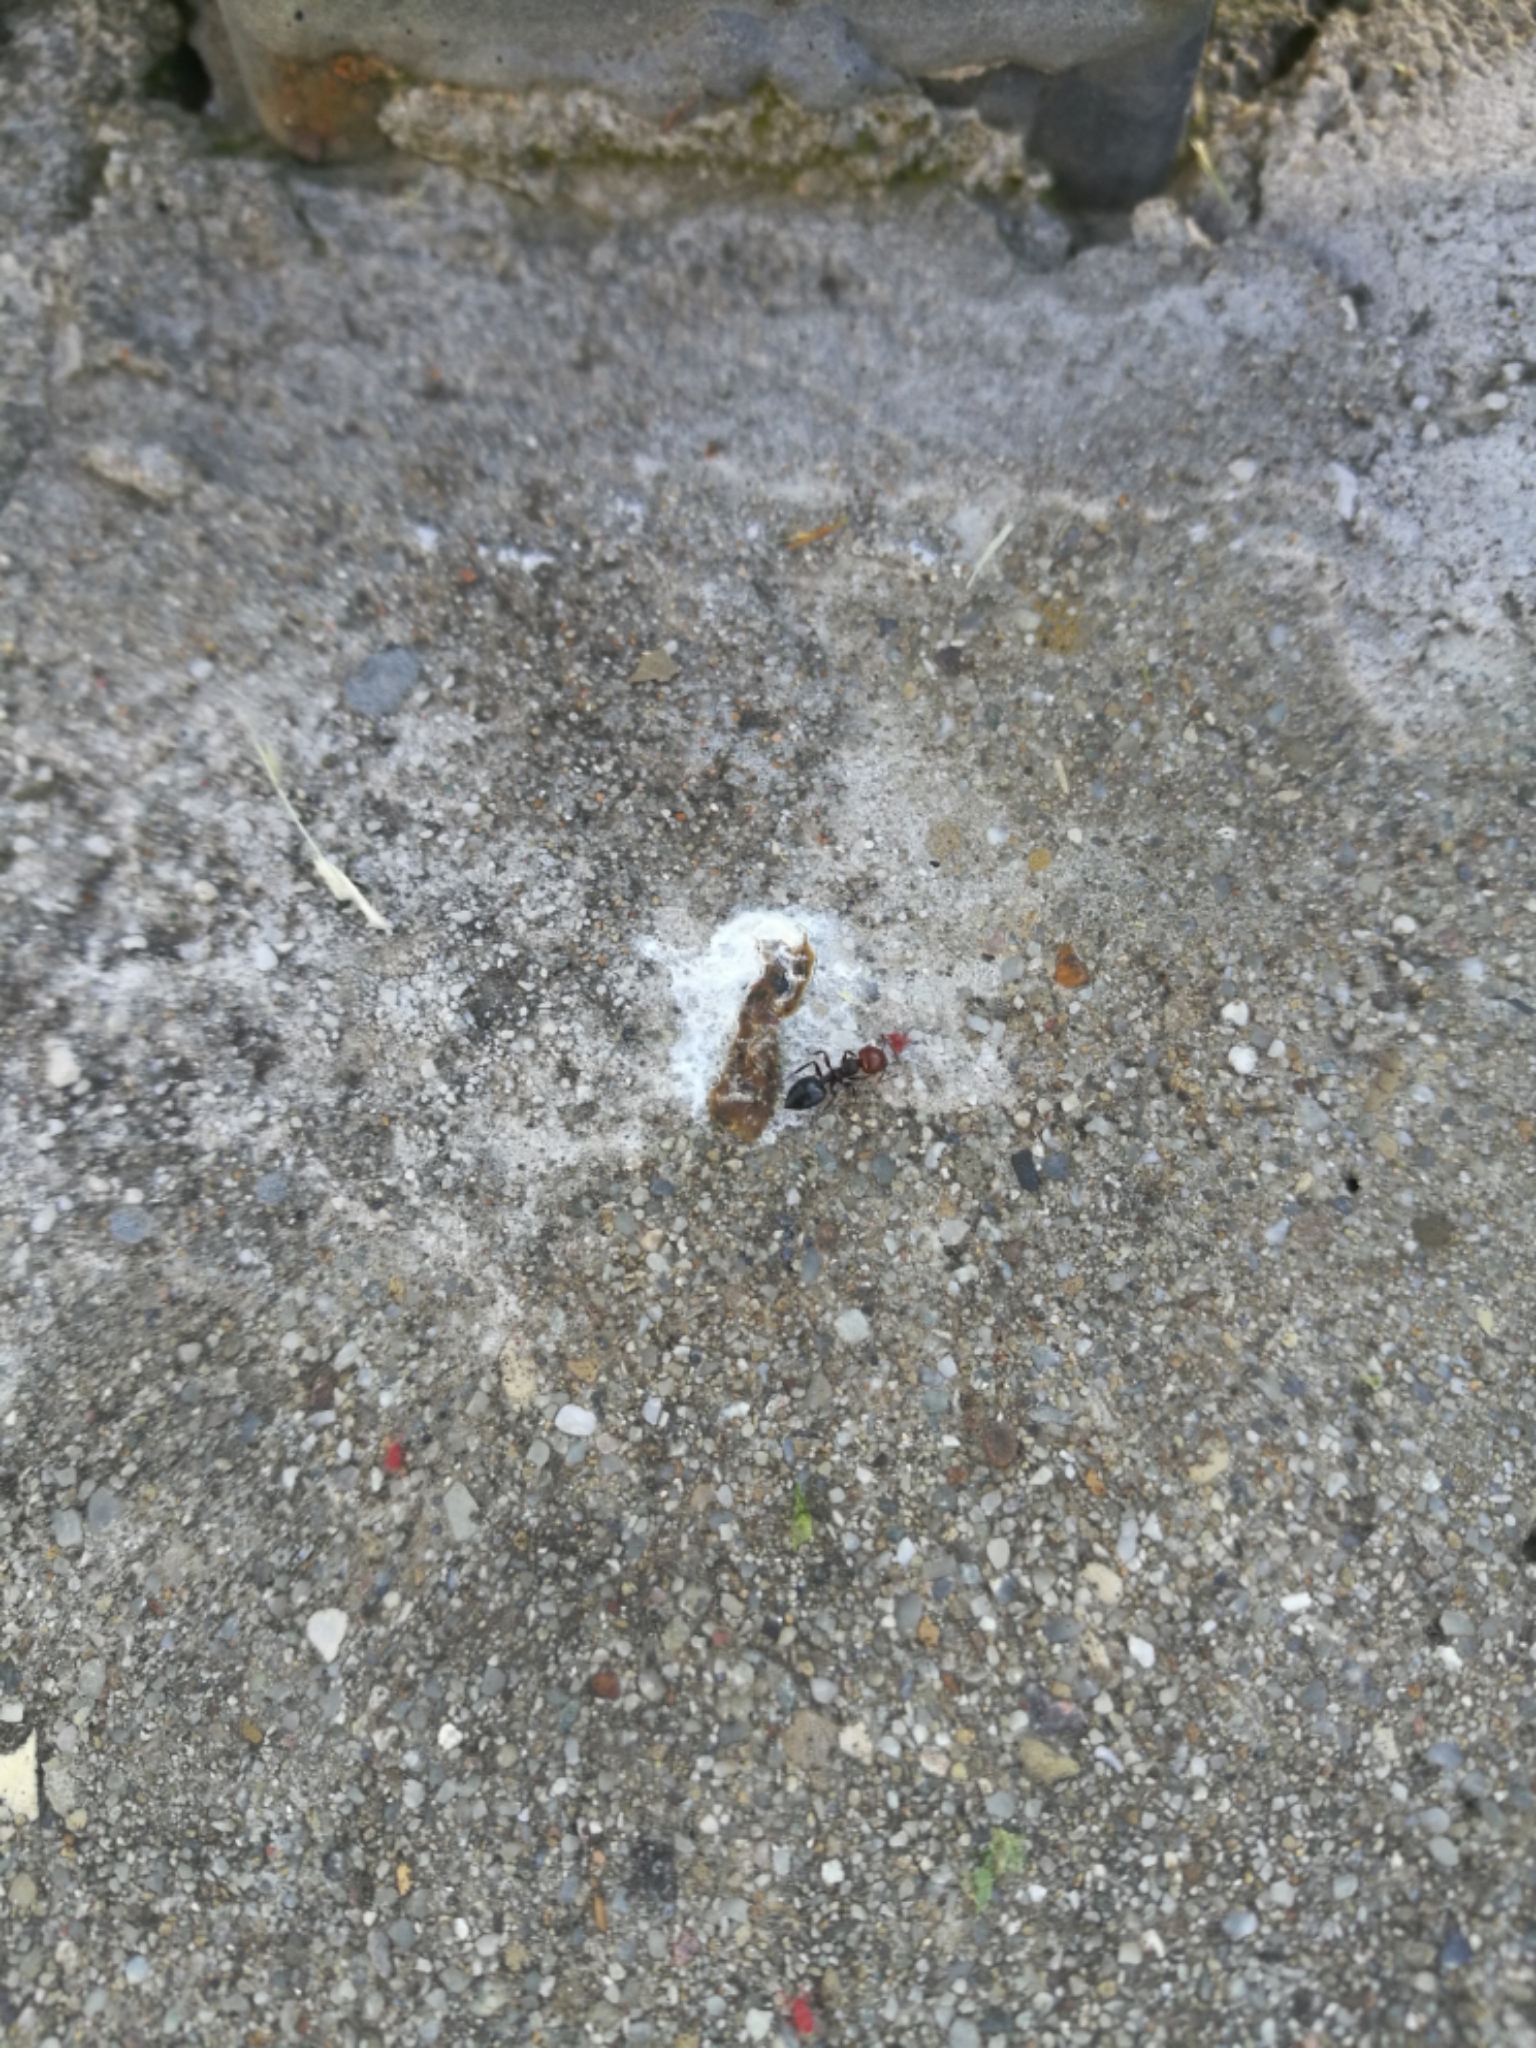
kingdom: Animalia
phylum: Arthropoda
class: Insecta
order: Hymenoptera
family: Formicidae
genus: Crematogaster
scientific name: Crematogaster scutellaris
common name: Fourmi du liège
